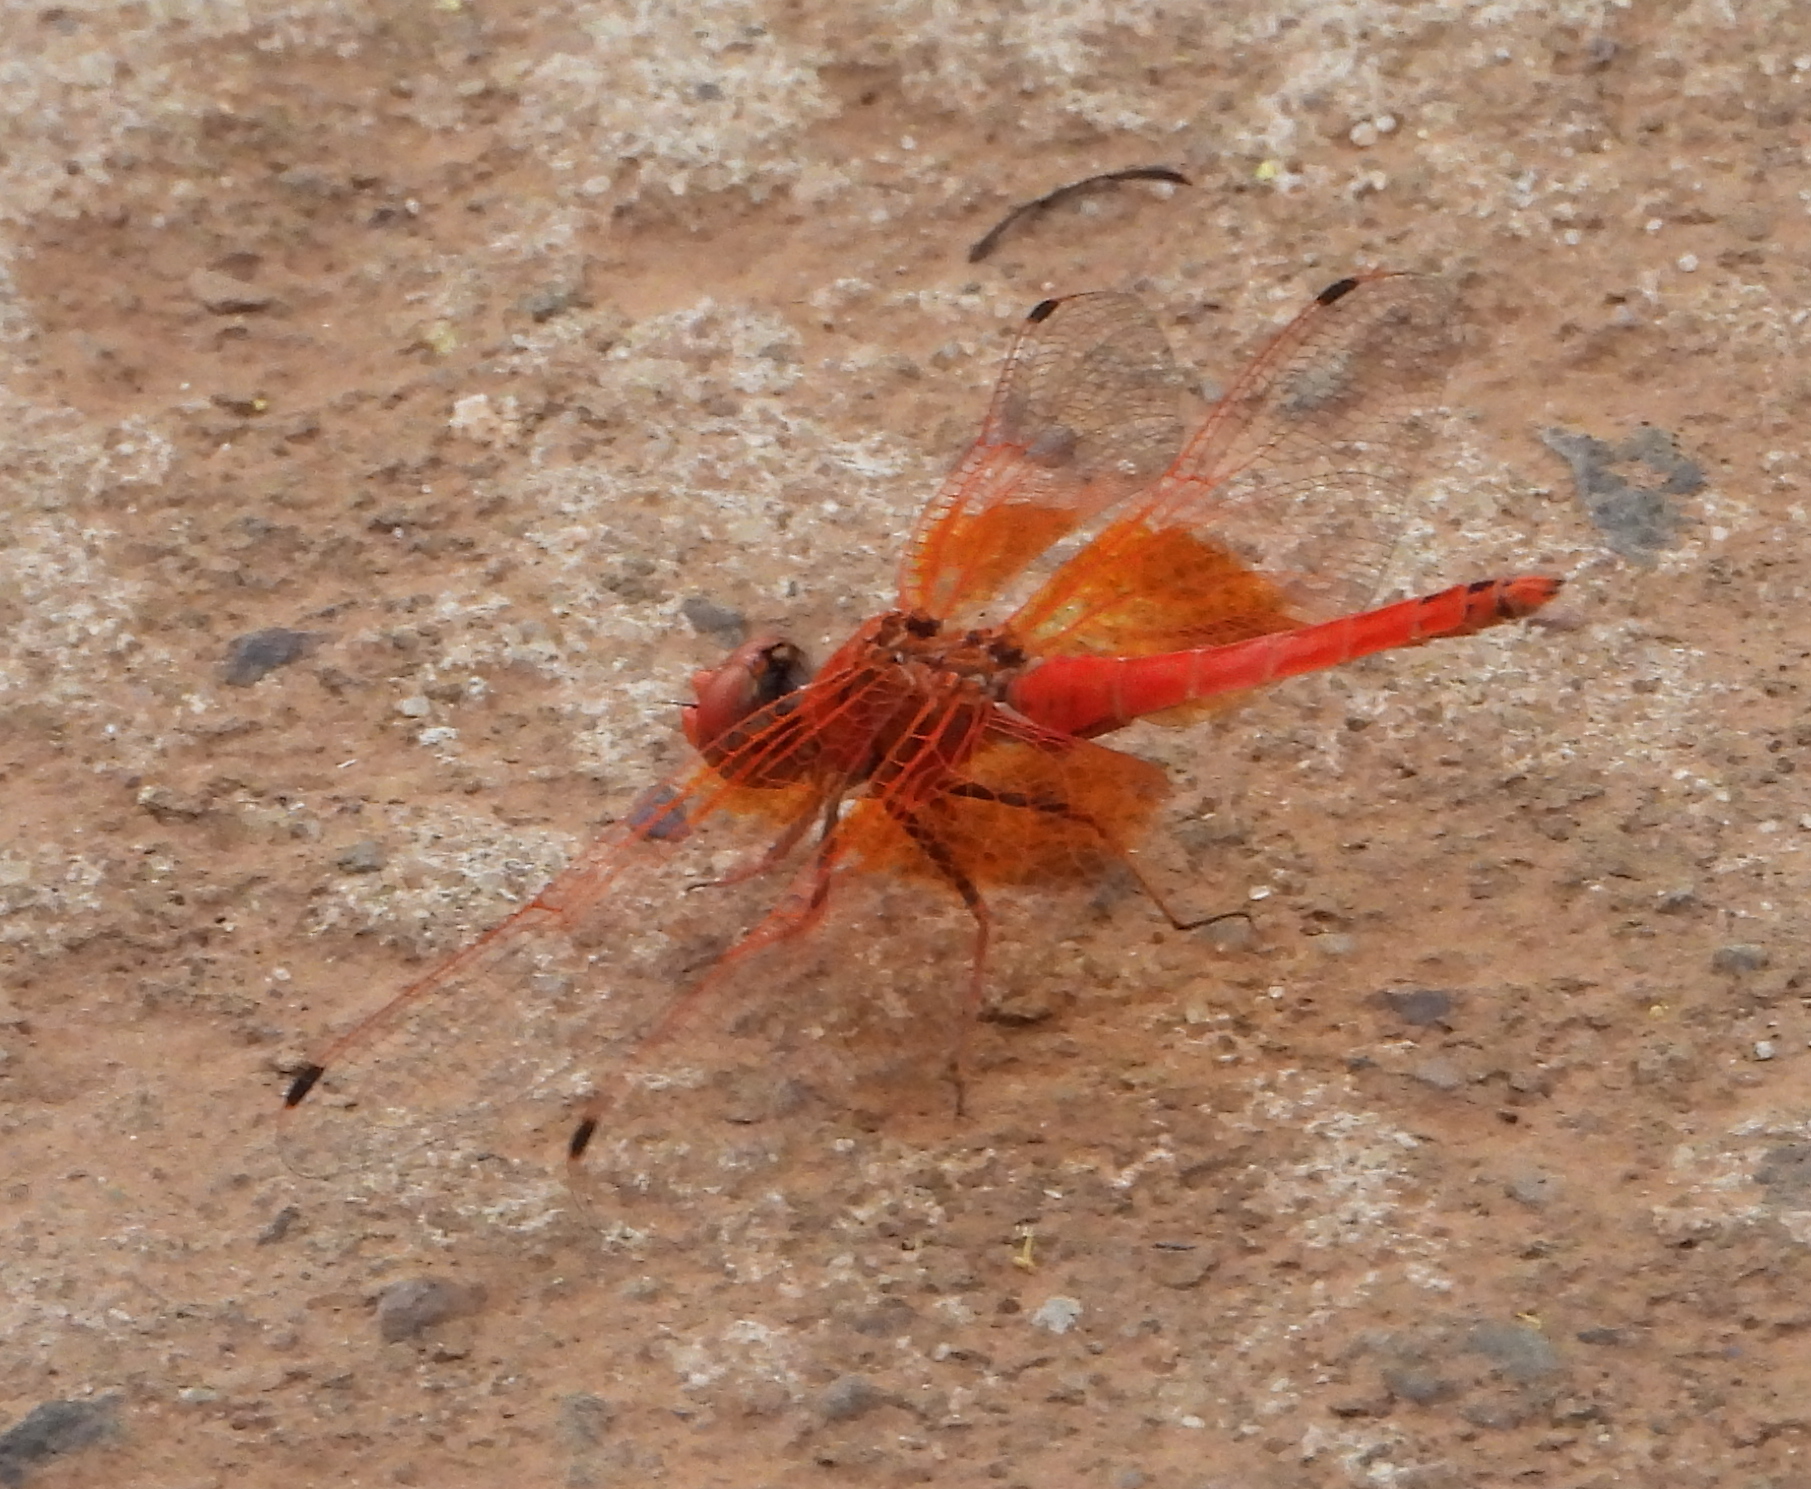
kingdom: Animalia
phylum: Arthropoda
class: Insecta
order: Odonata
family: Libellulidae
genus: Trithemis
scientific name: Trithemis kirbyi
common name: Kirby's dropwing
